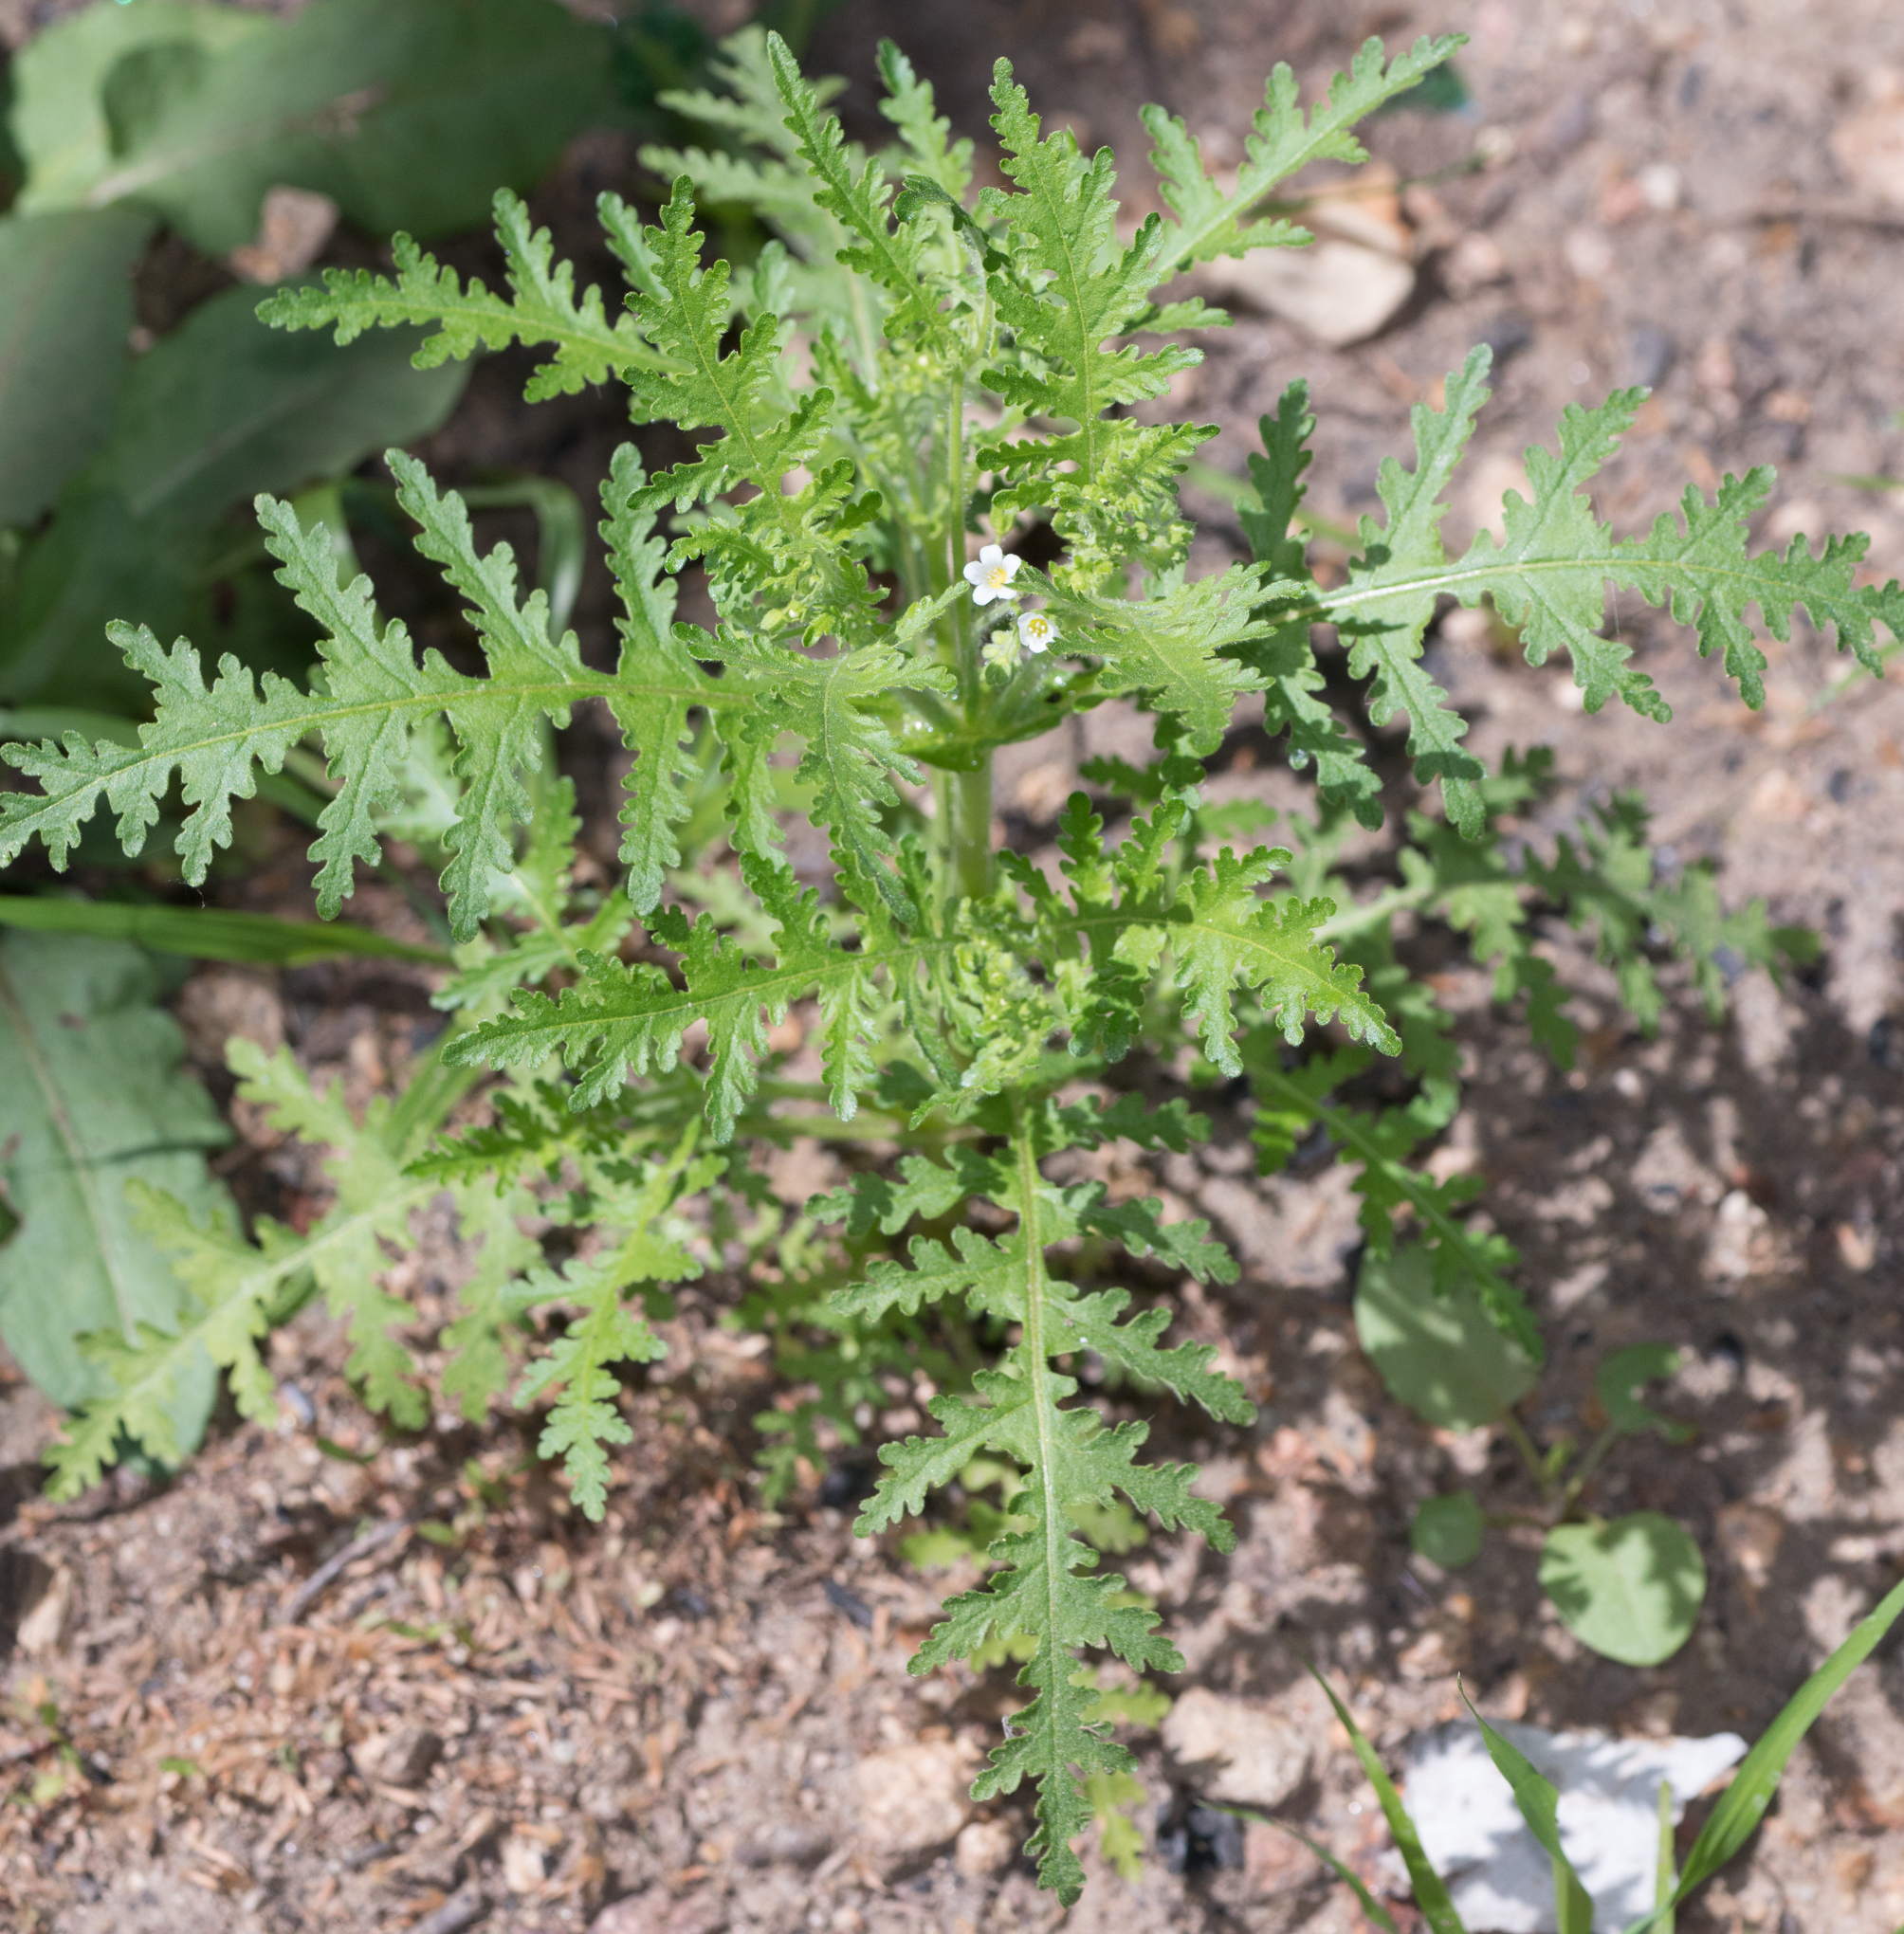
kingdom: Plantae
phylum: Tracheophyta
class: Magnoliopsida
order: Boraginales
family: Hydrophyllaceae
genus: Eucrypta
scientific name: Eucrypta chrysanthemifolia
